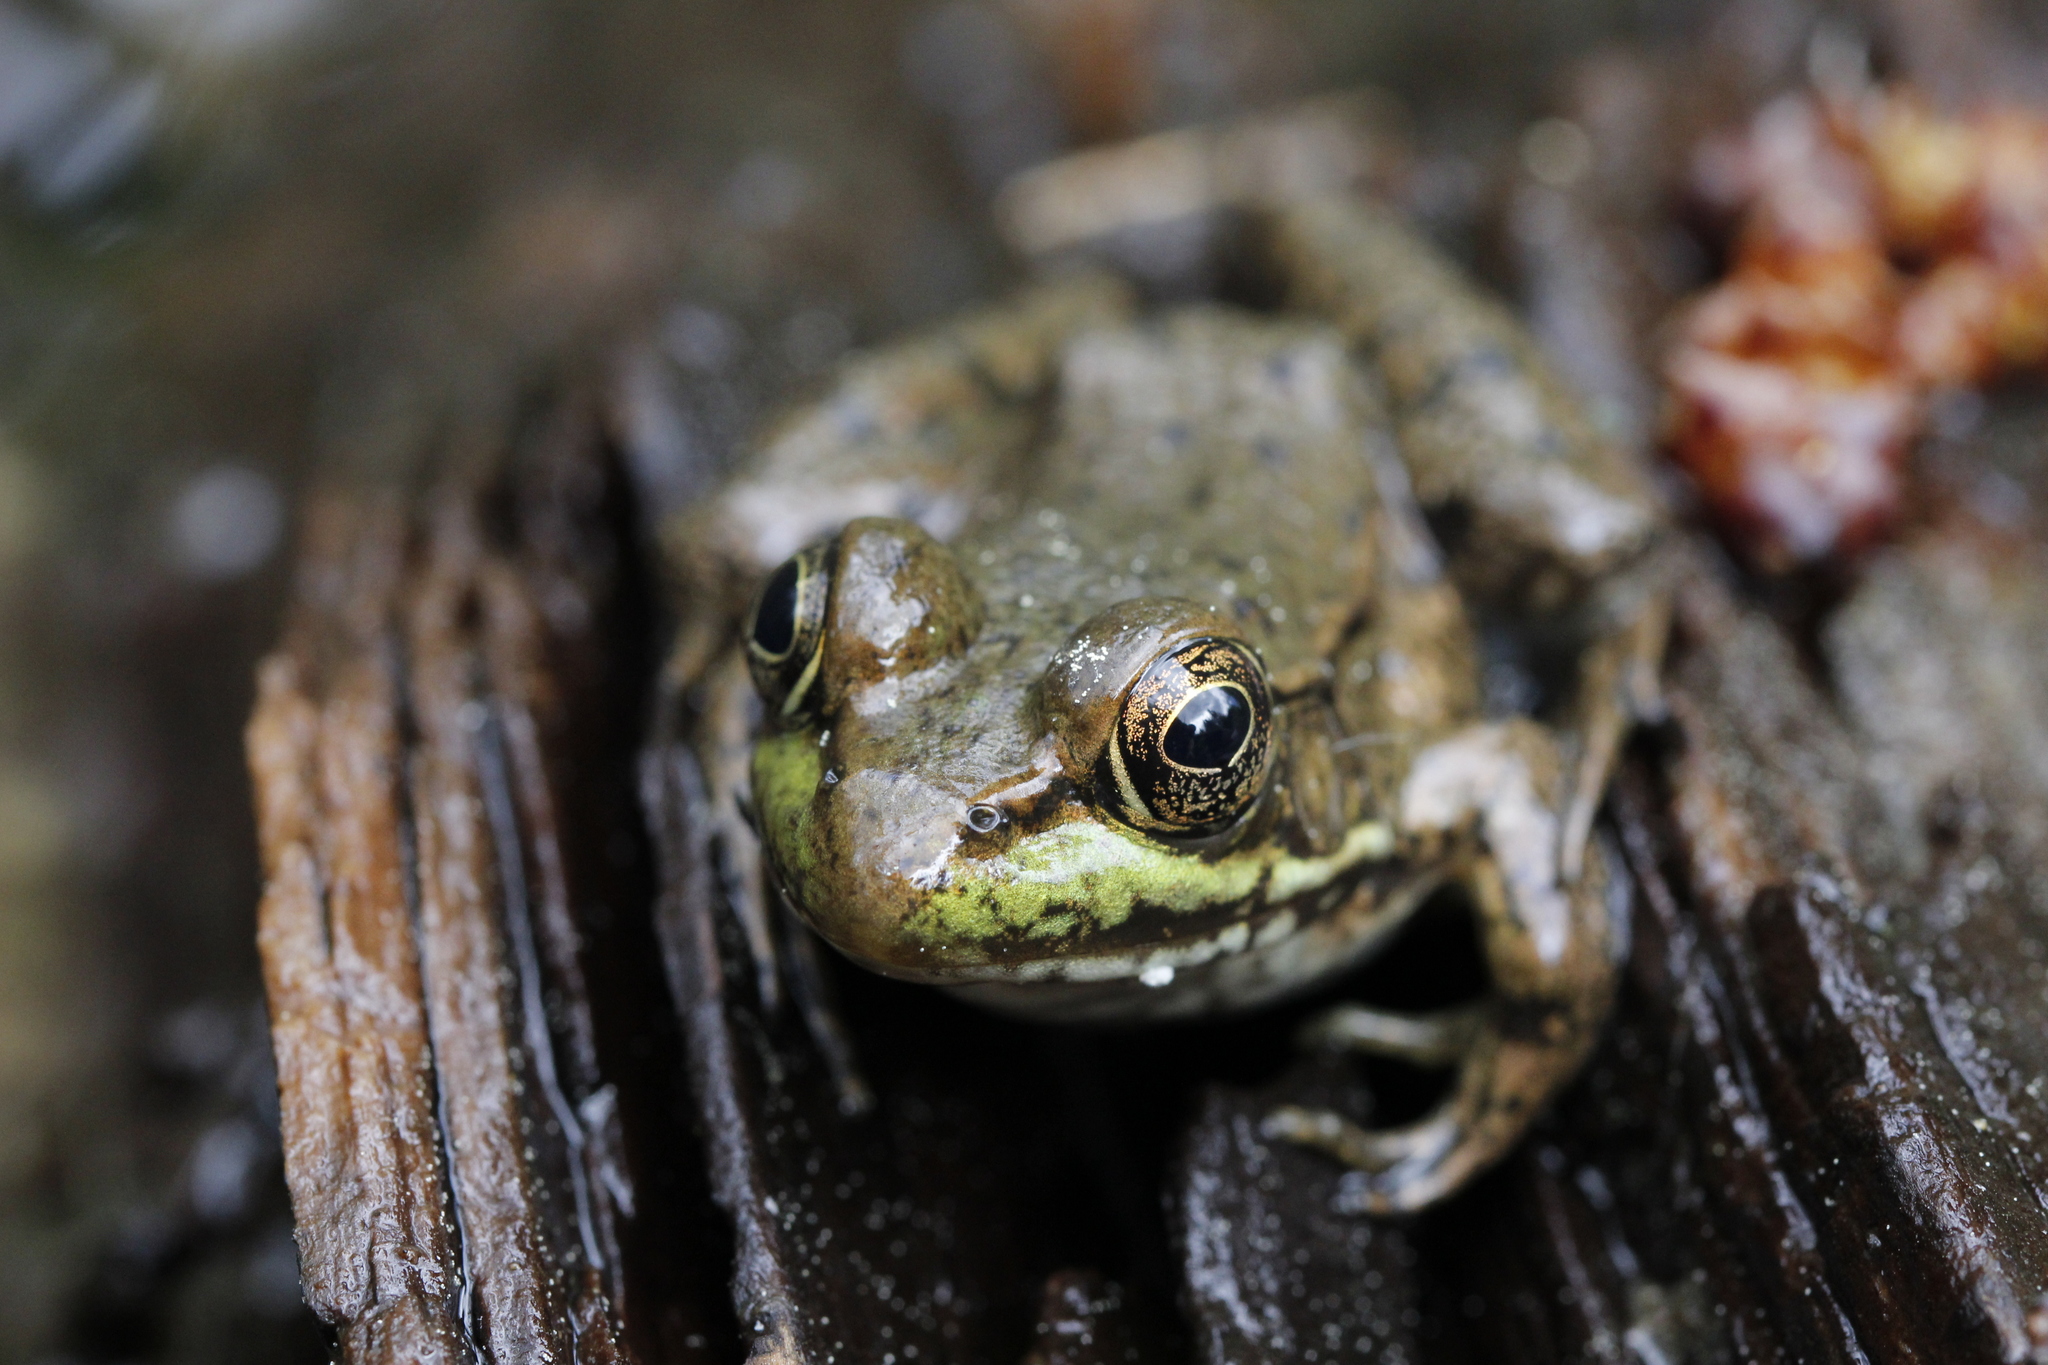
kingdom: Animalia
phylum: Chordata
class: Amphibia
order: Anura
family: Ranidae
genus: Lithobates
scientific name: Lithobates clamitans
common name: Green frog
